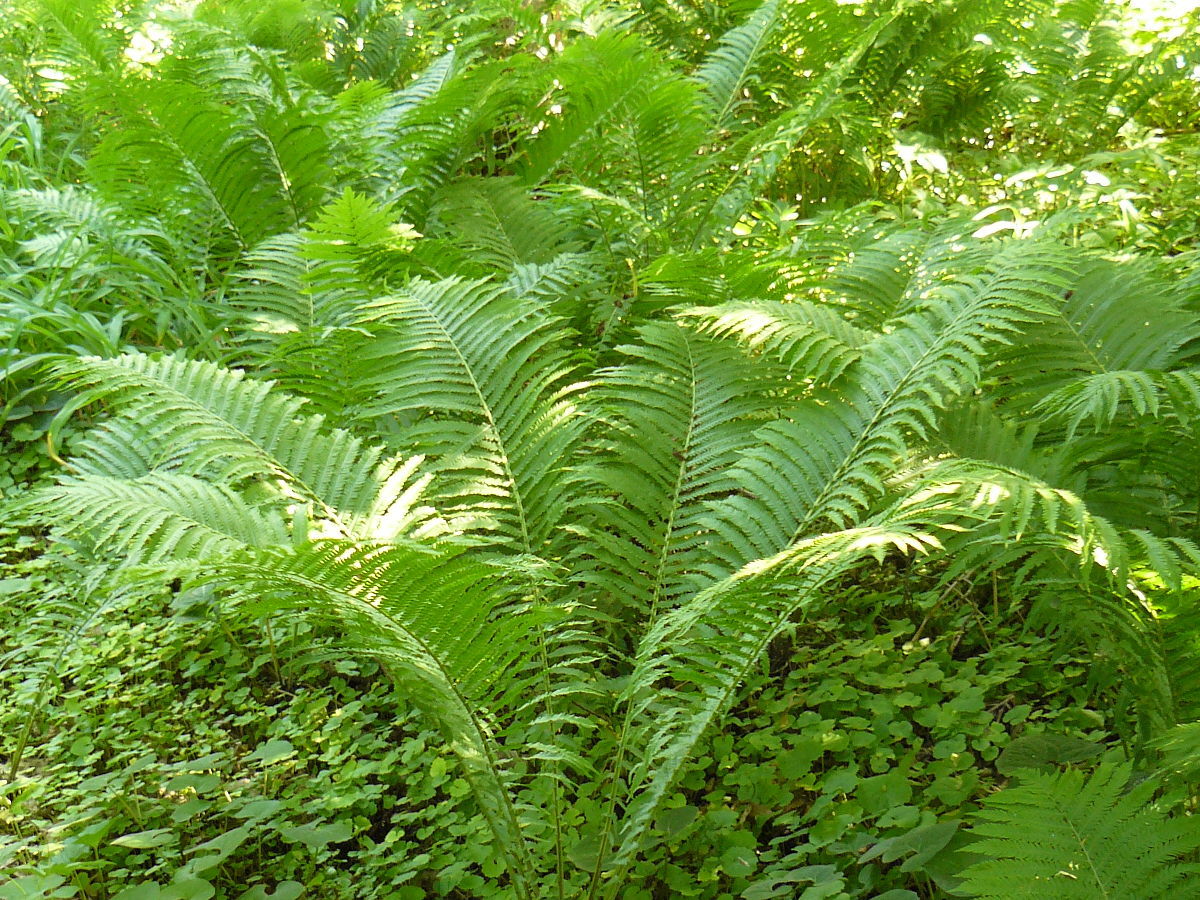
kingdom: Plantae
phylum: Tracheophyta
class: Polypodiopsida
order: Osmundales
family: Osmundaceae
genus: Osmundastrum
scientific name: Osmundastrum cinnamomeum
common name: Cinnamon fern
